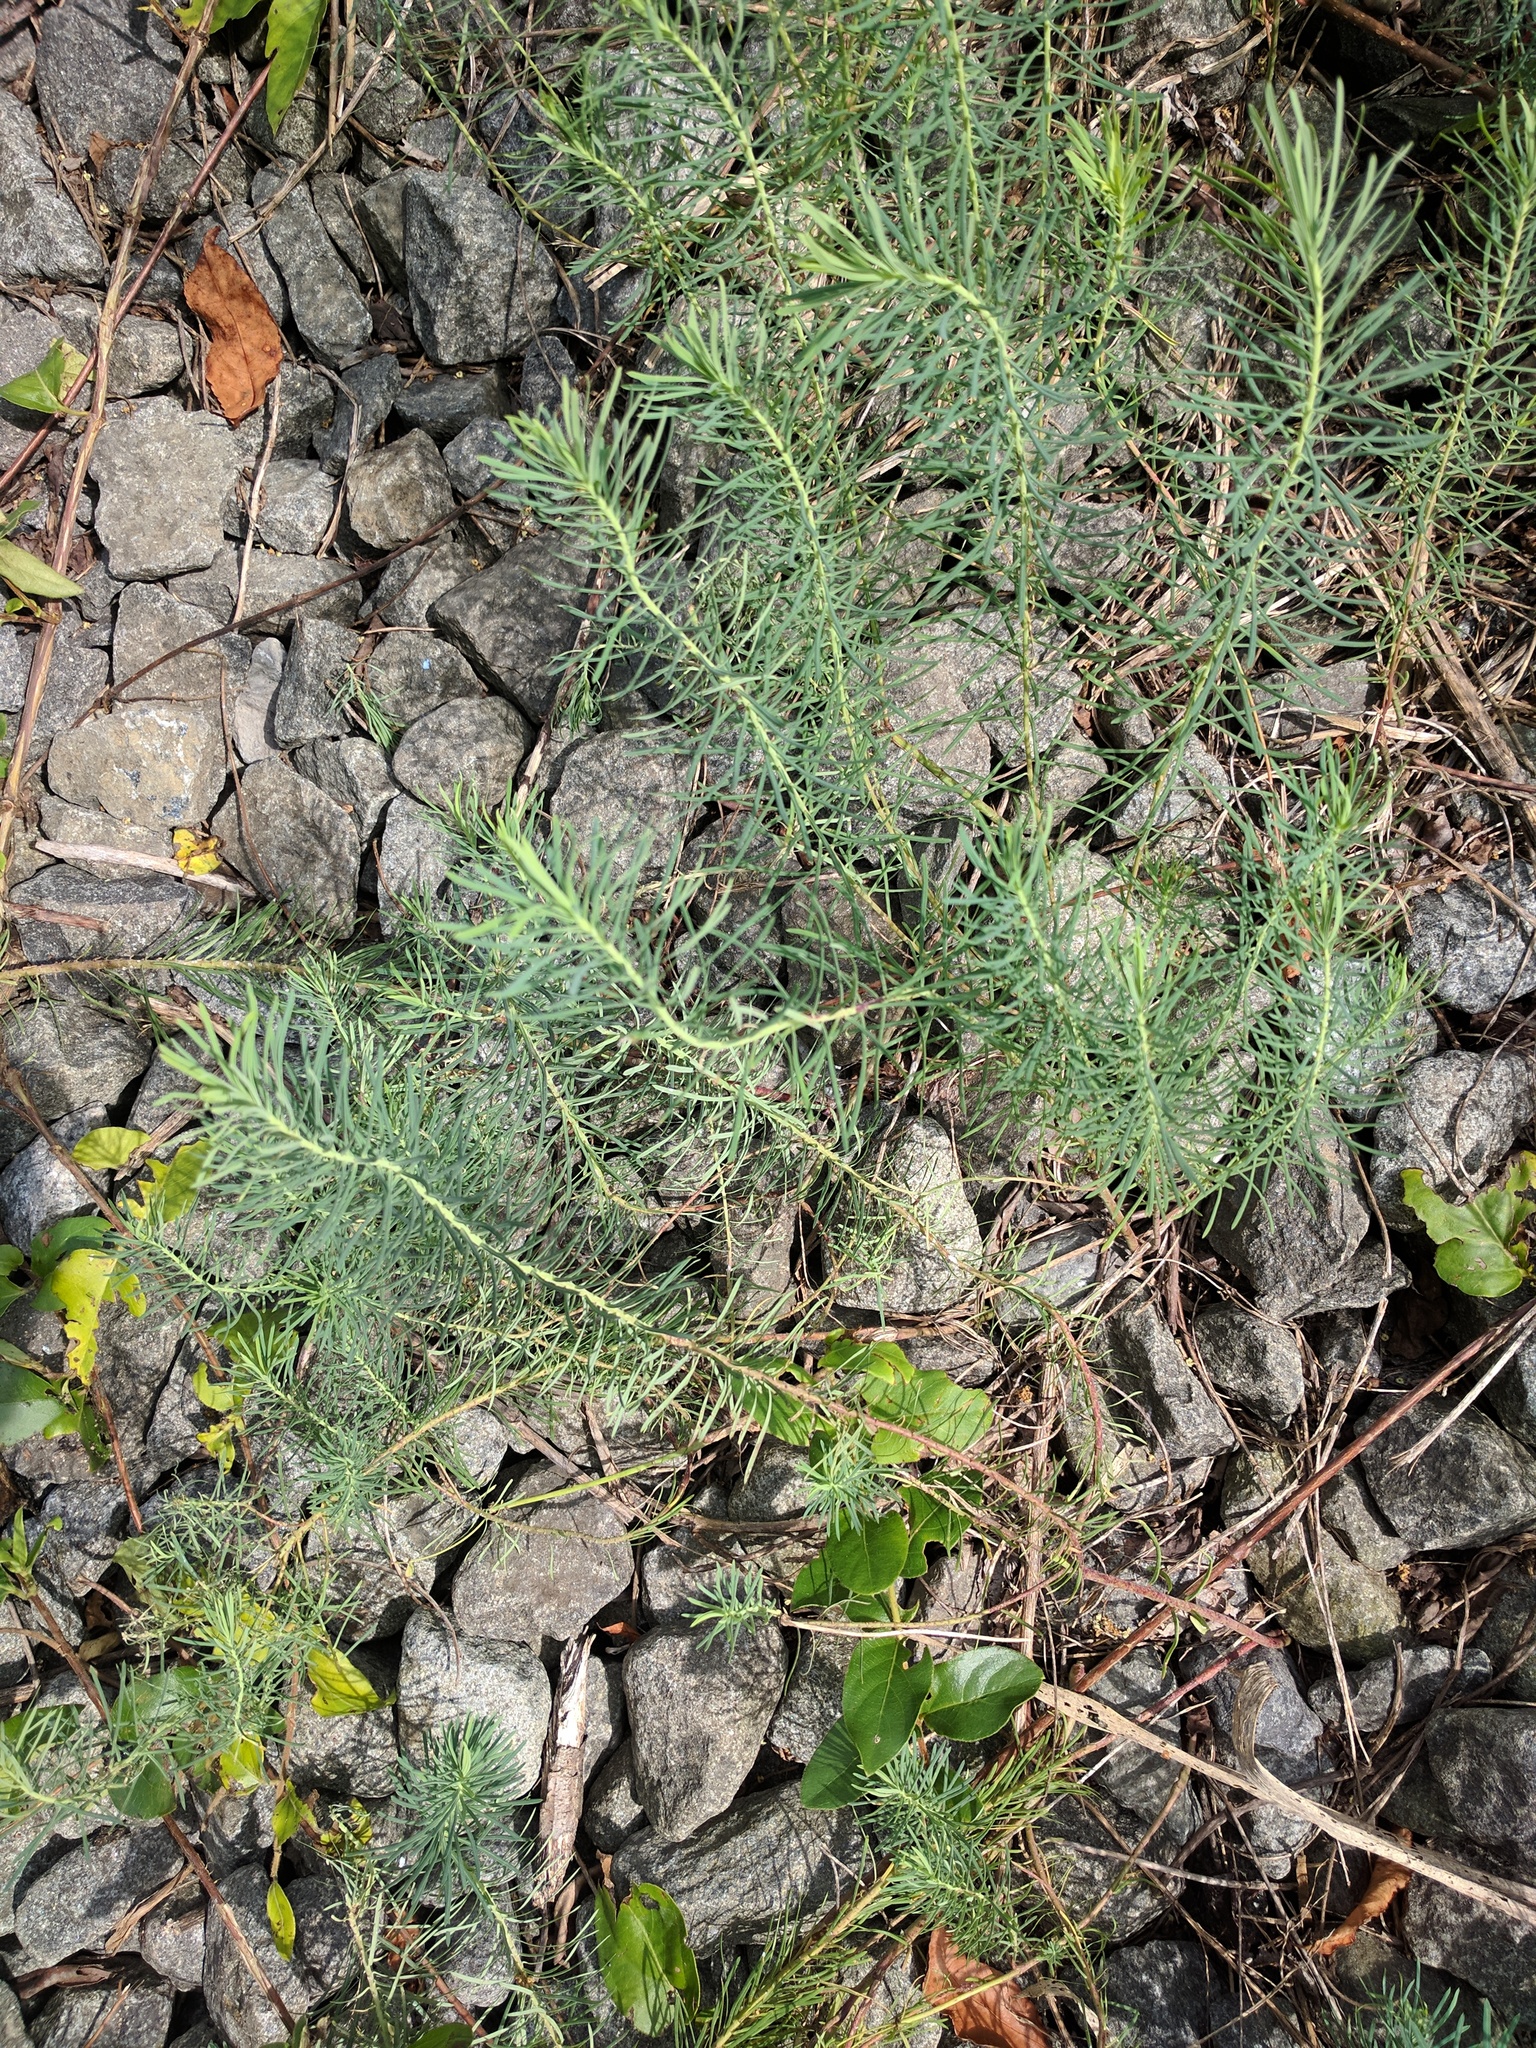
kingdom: Plantae
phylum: Tracheophyta
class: Magnoliopsida
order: Malpighiales
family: Euphorbiaceae
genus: Euphorbia
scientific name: Euphorbia cyparissias
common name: Cypress spurge
